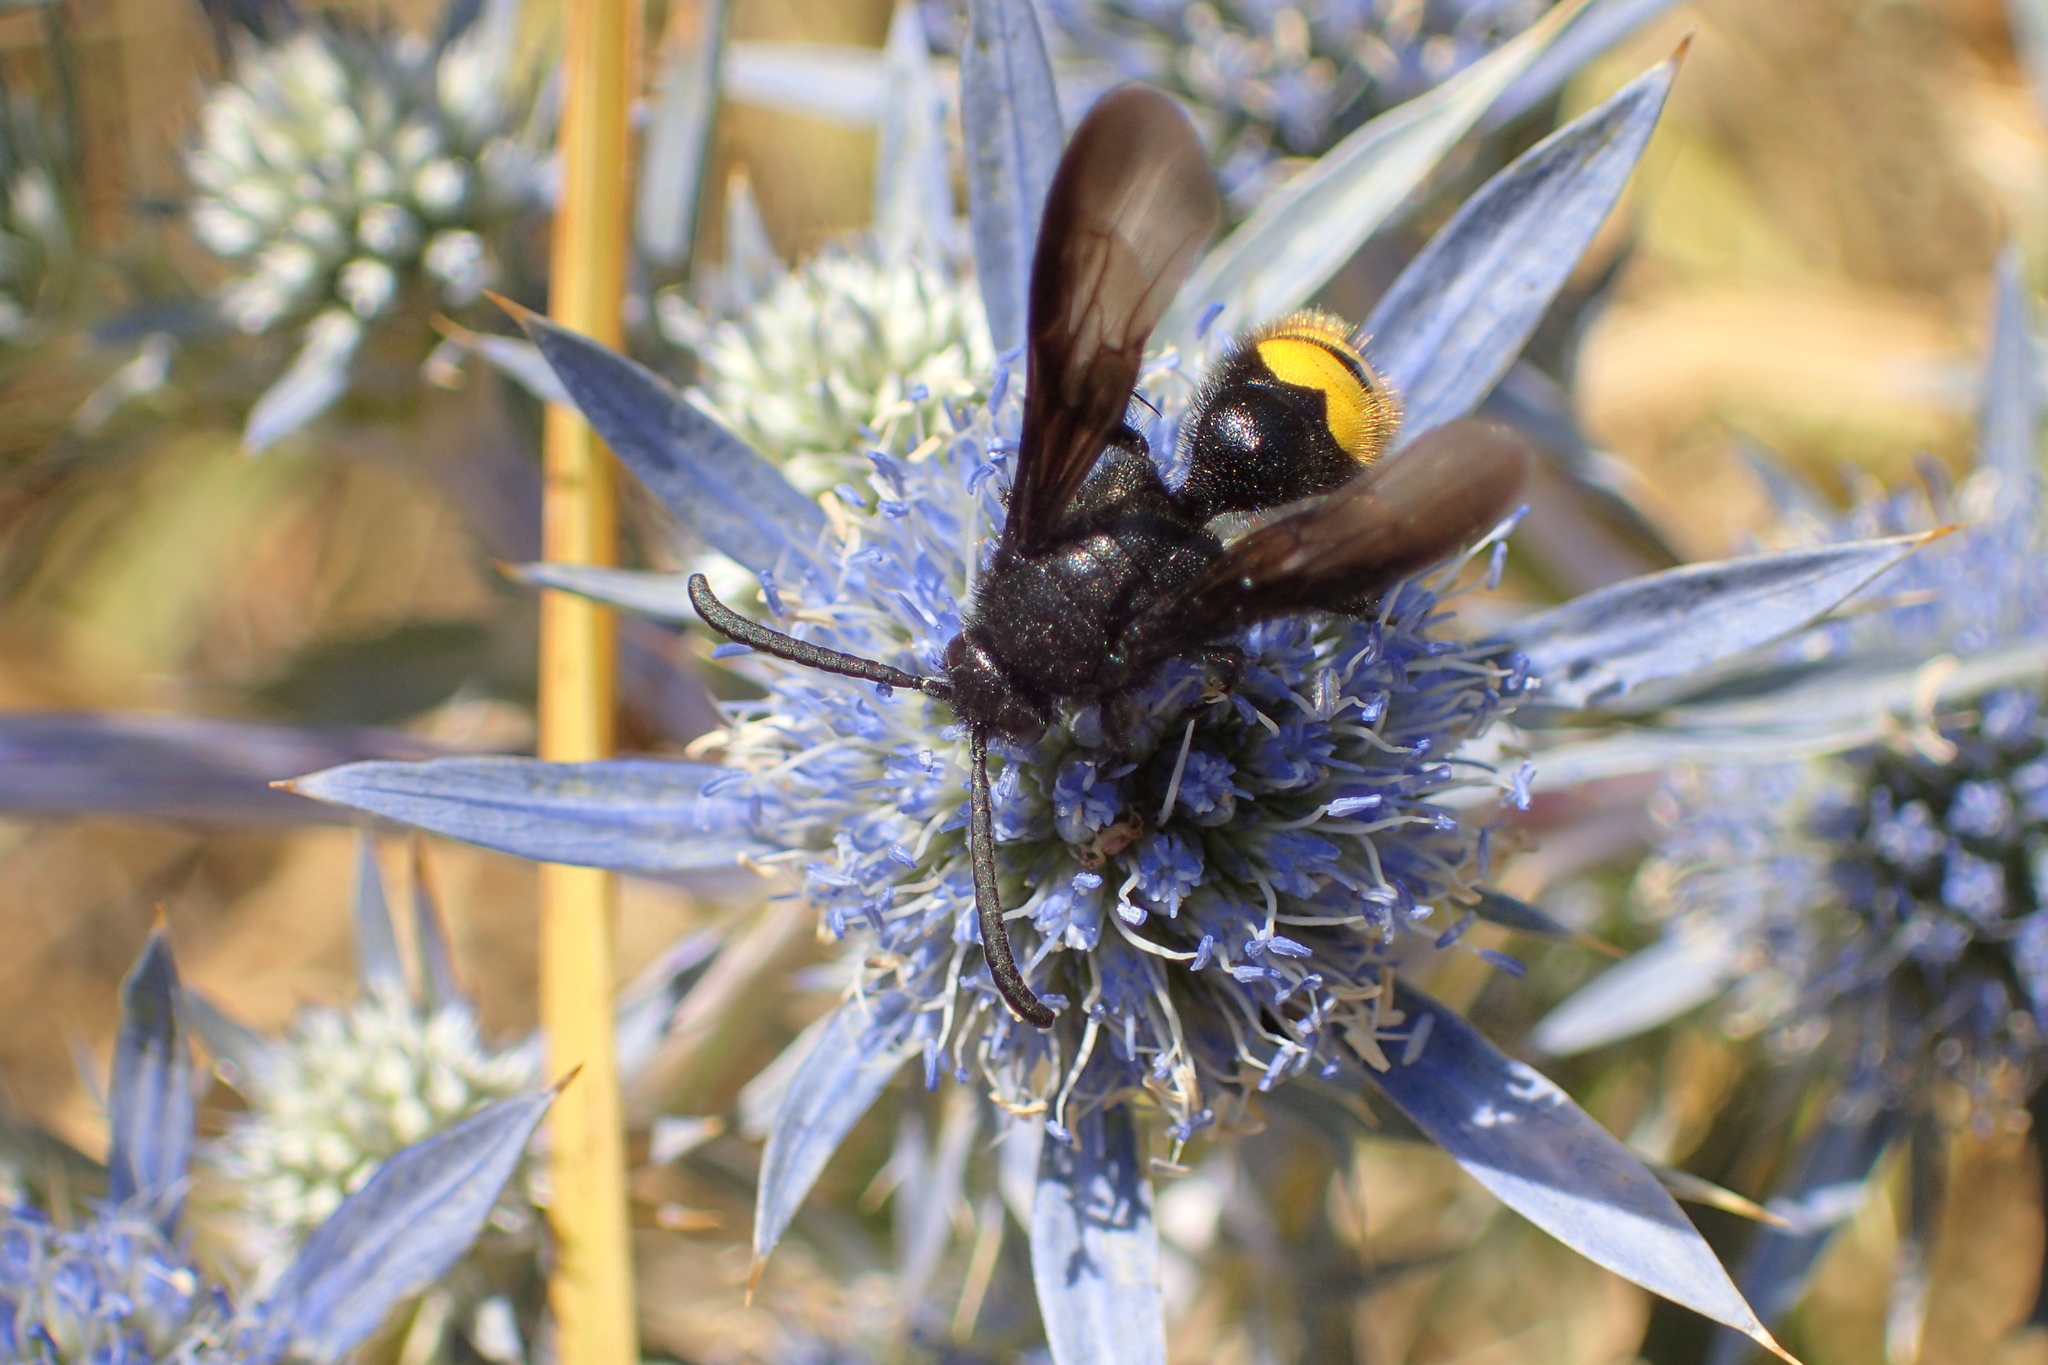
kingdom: Animalia
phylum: Arthropoda
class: Insecta
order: Hymenoptera
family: Scoliidae
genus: Scolia
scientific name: Scolia hirta
